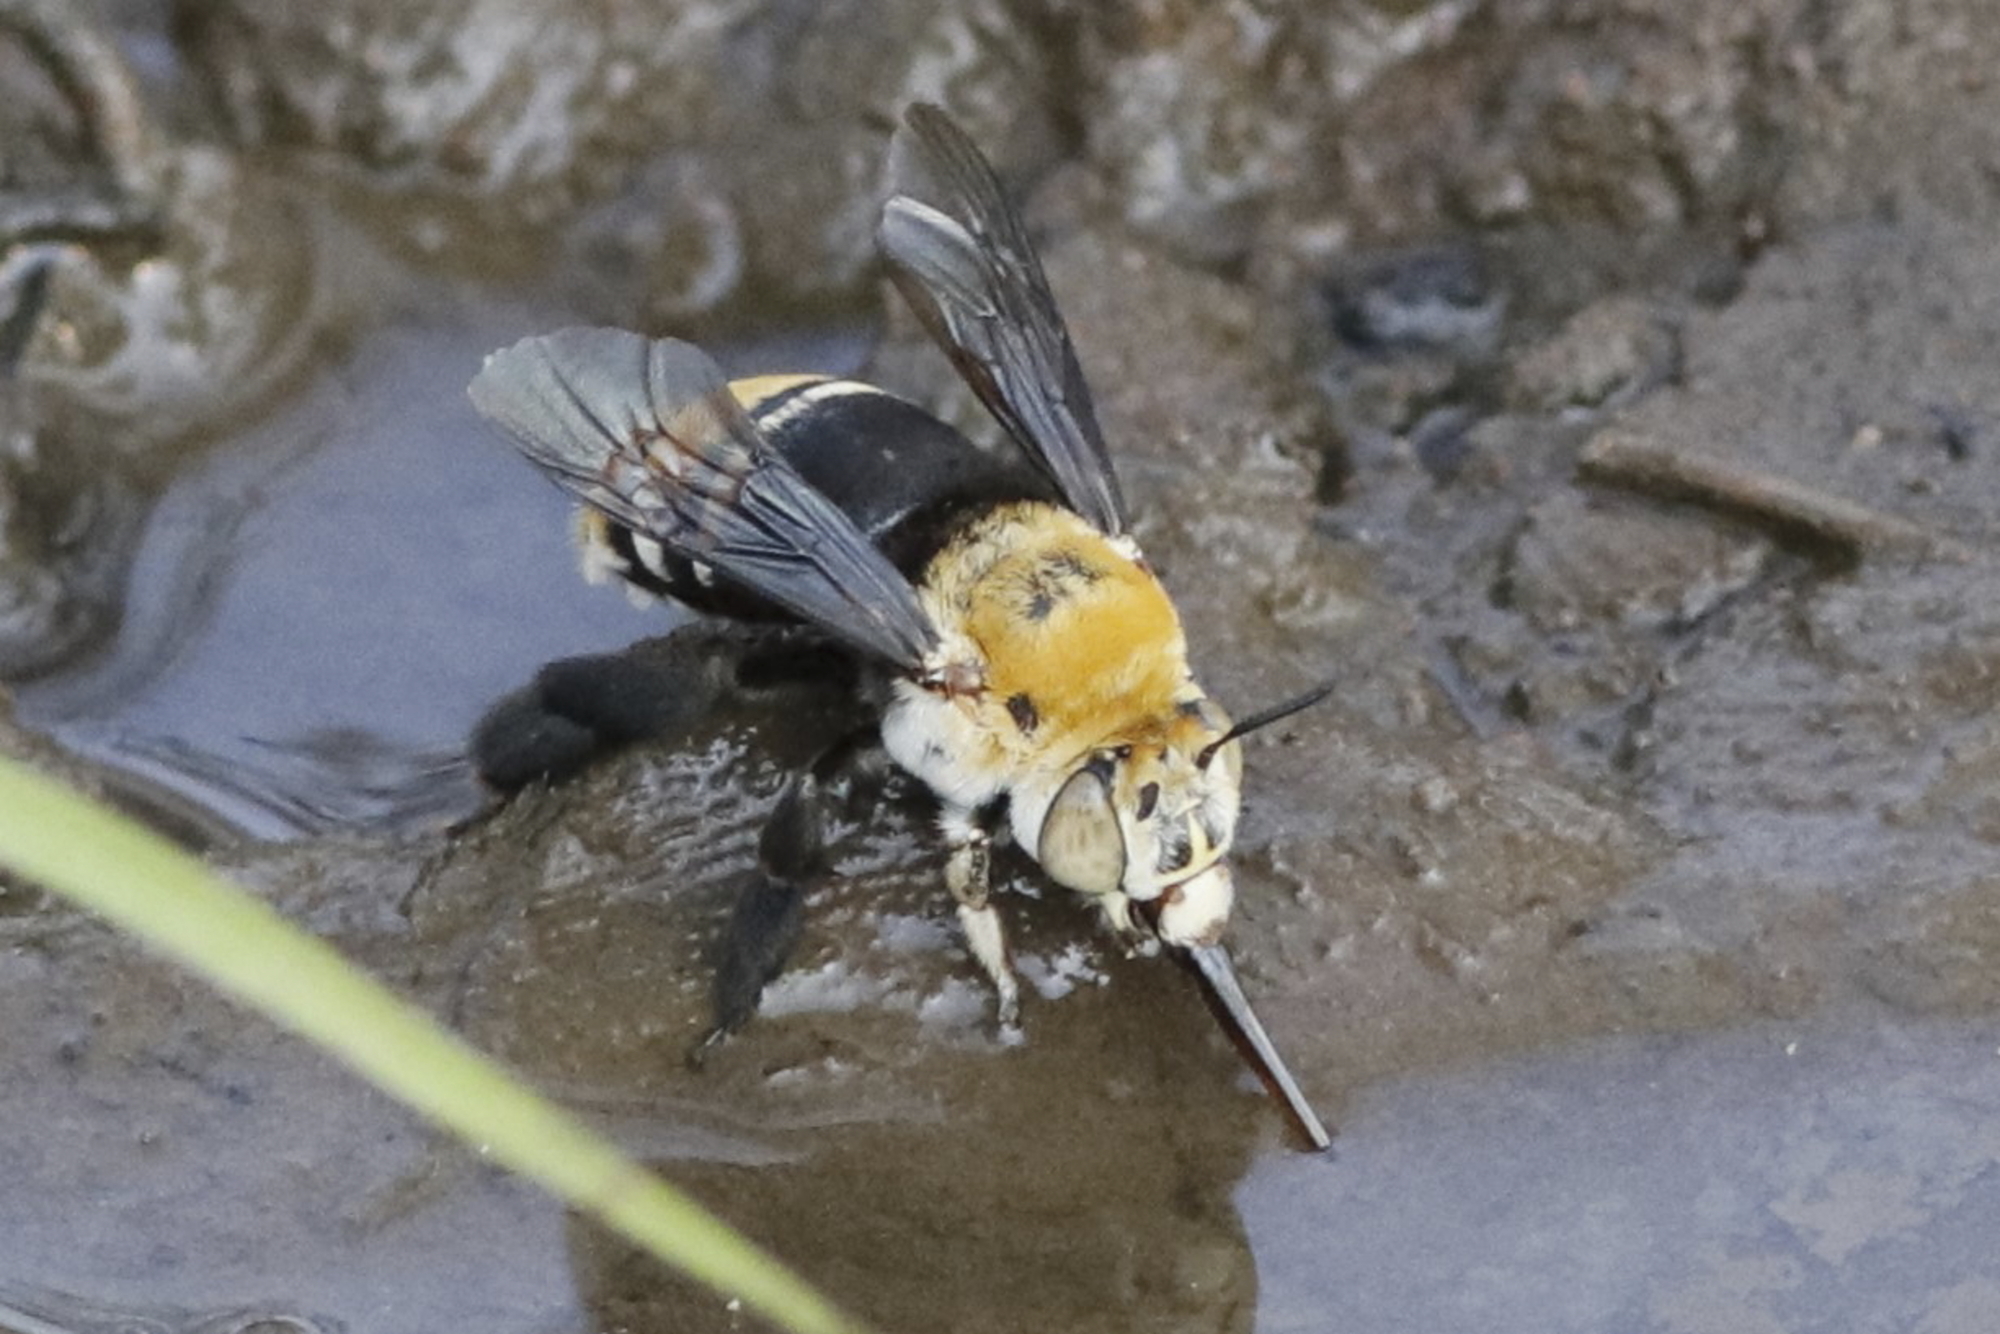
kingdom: Animalia
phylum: Arthropoda
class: Insecta
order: Hymenoptera
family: Apidae
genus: Amegilla
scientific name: Amegilla atrocincta
